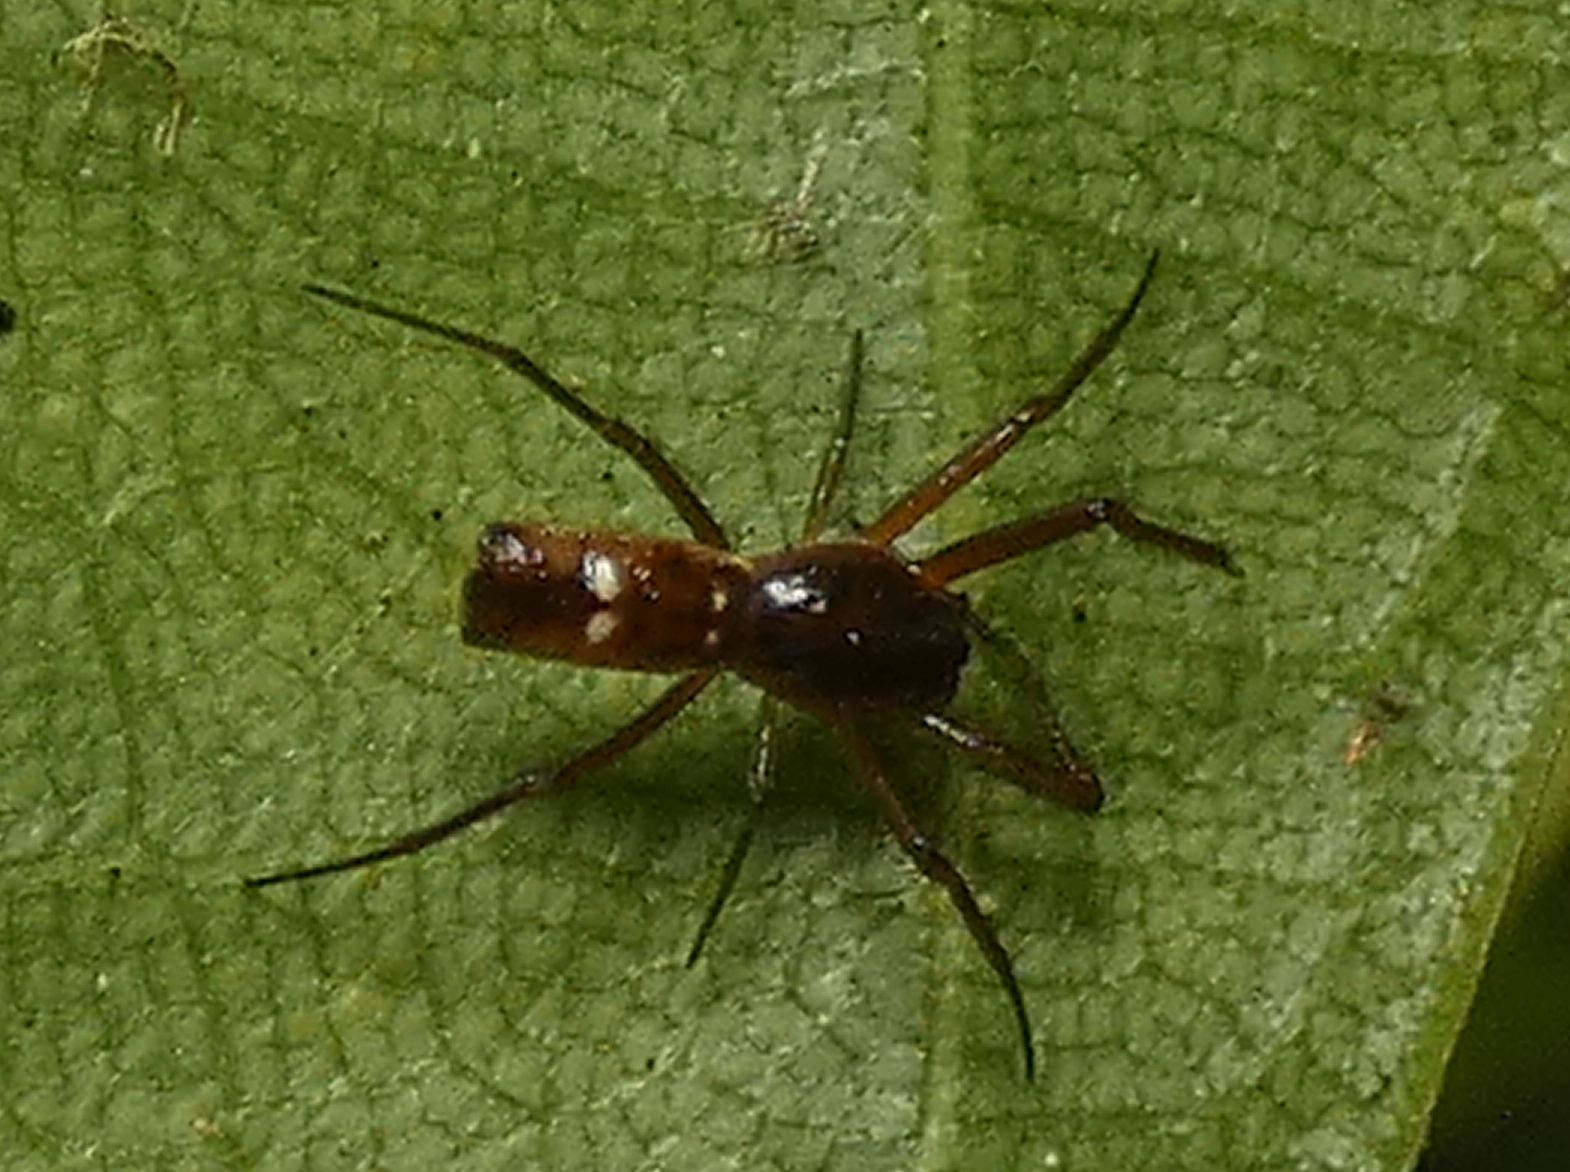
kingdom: Animalia
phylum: Arthropoda
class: Arachnida
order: Araneae
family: Araneidae
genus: Micrathena
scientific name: Micrathena fissispina
